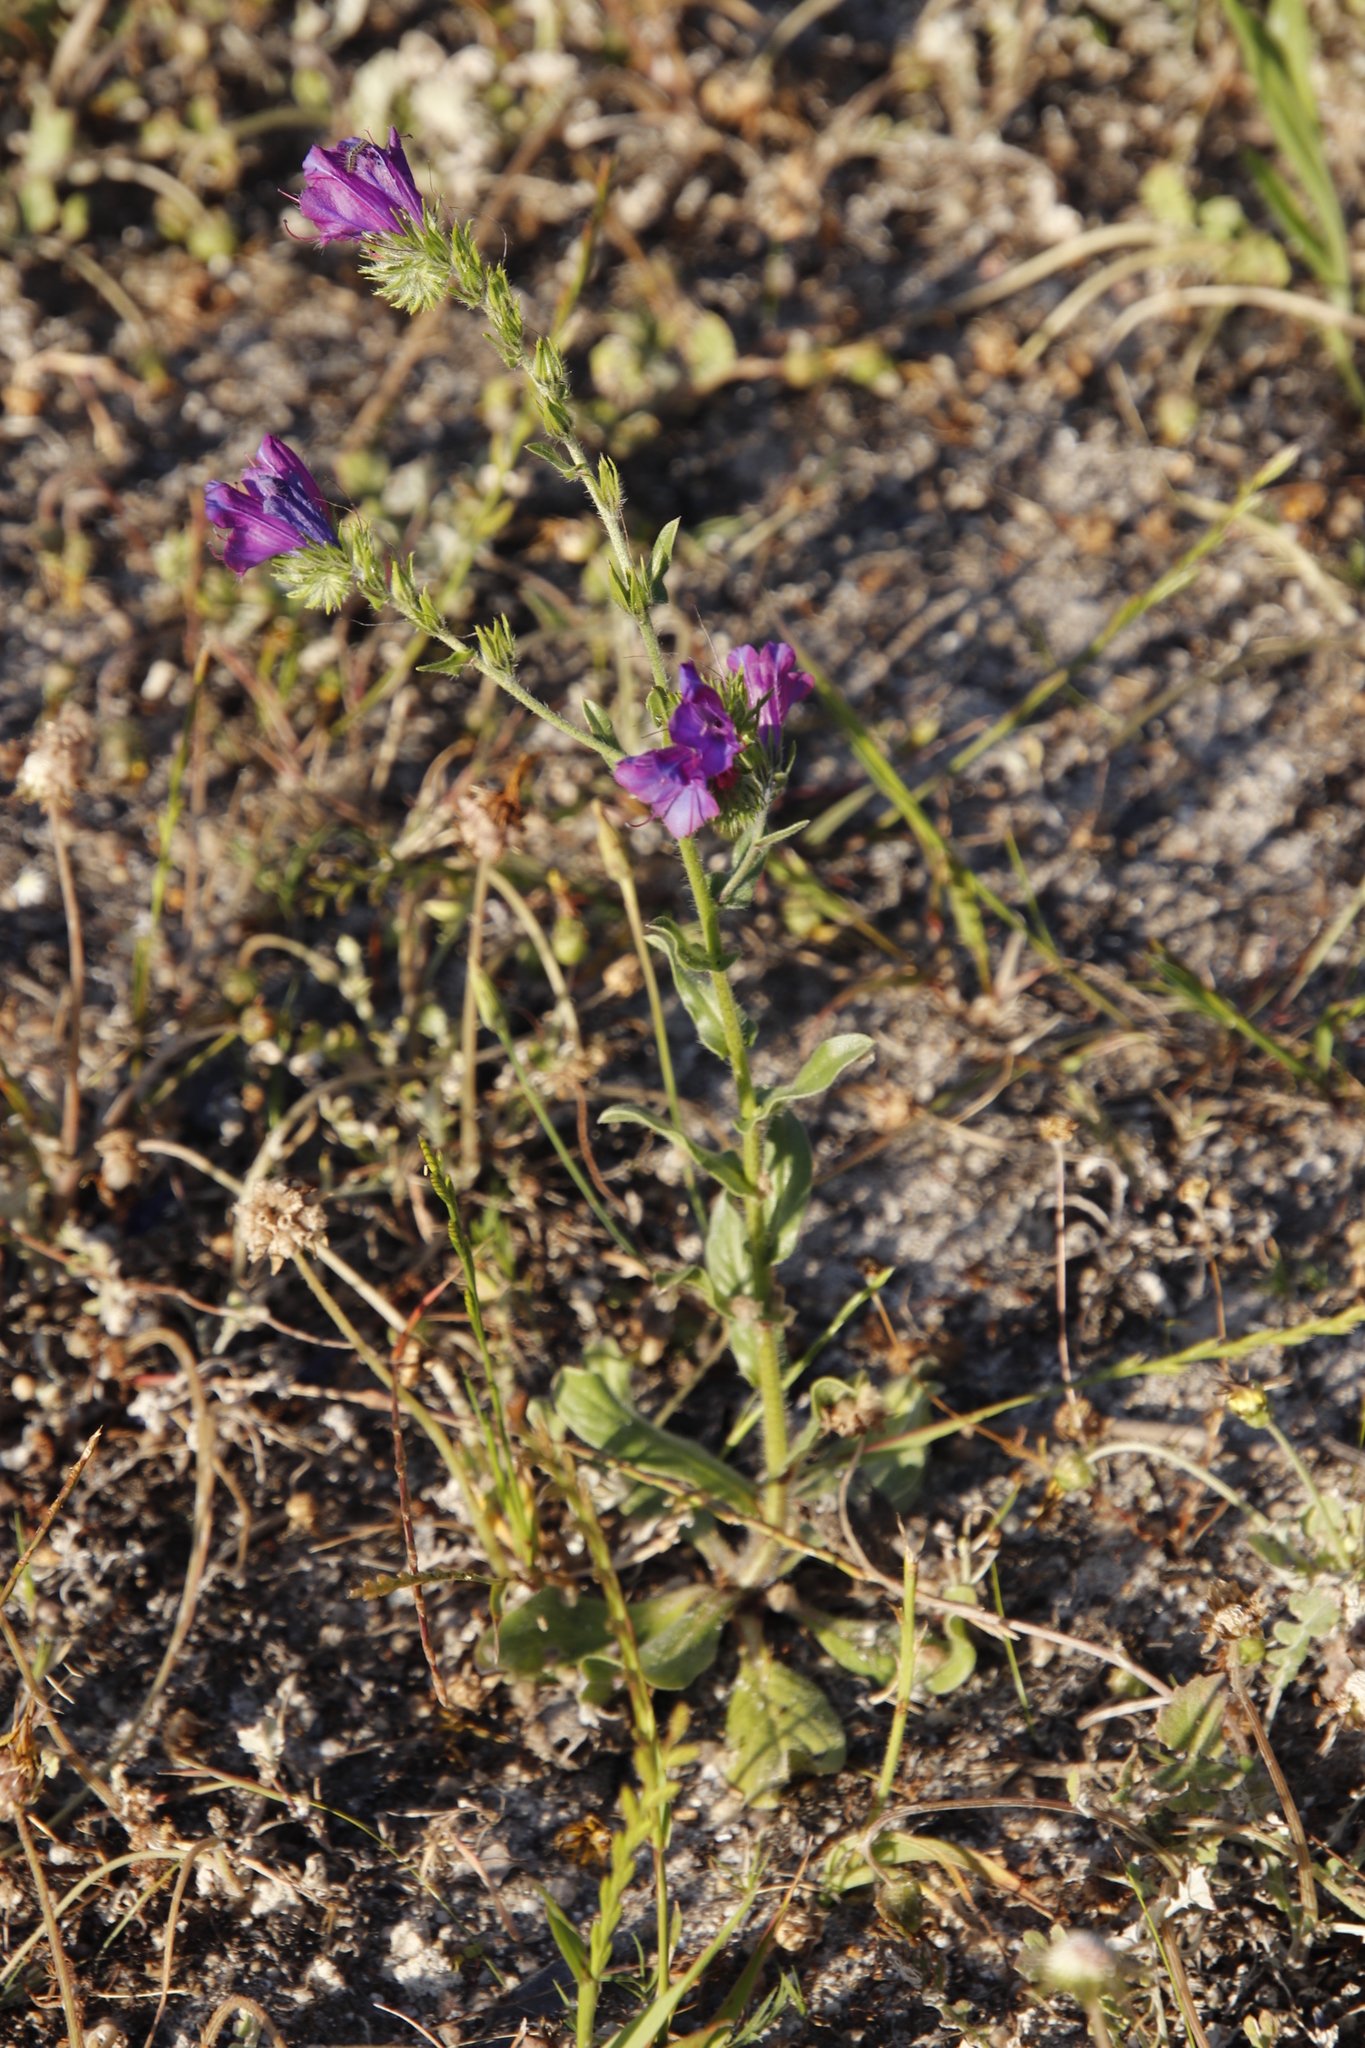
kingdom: Plantae
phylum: Tracheophyta
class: Magnoliopsida
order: Boraginales
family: Boraginaceae
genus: Echium
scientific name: Echium plantagineum
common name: Purple viper's-bugloss
